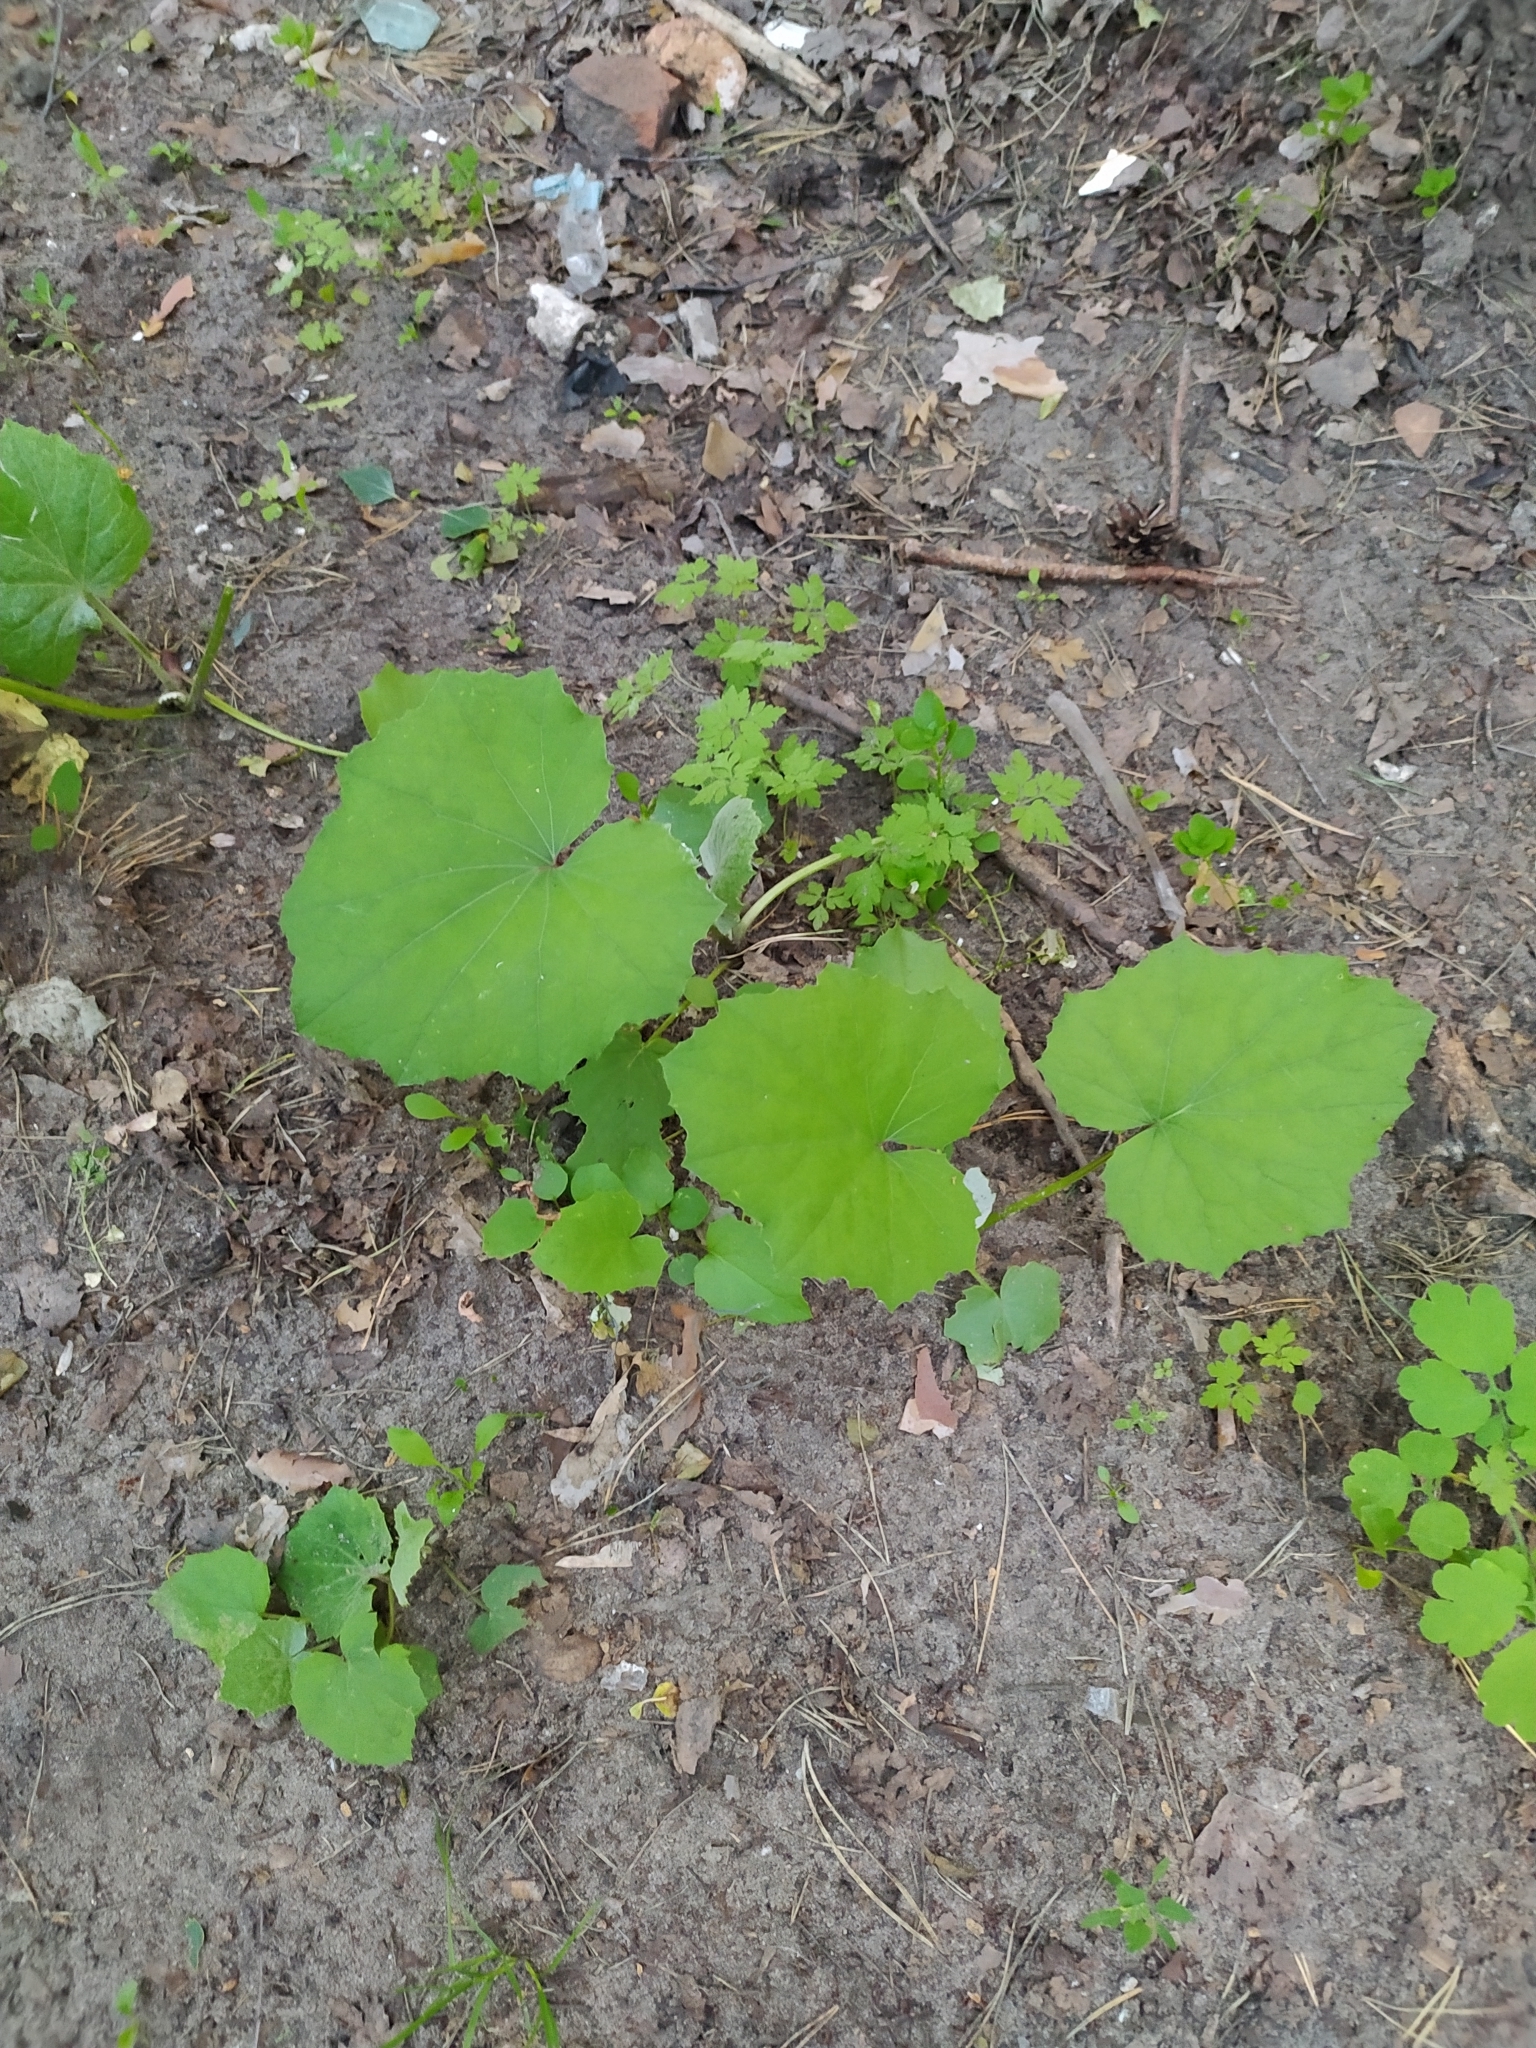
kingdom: Plantae
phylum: Tracheophyta
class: Magnoliopsida
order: Asterales
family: Asteraceae
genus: Tussilago
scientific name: Tussilago farfara
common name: Coltsfoot
